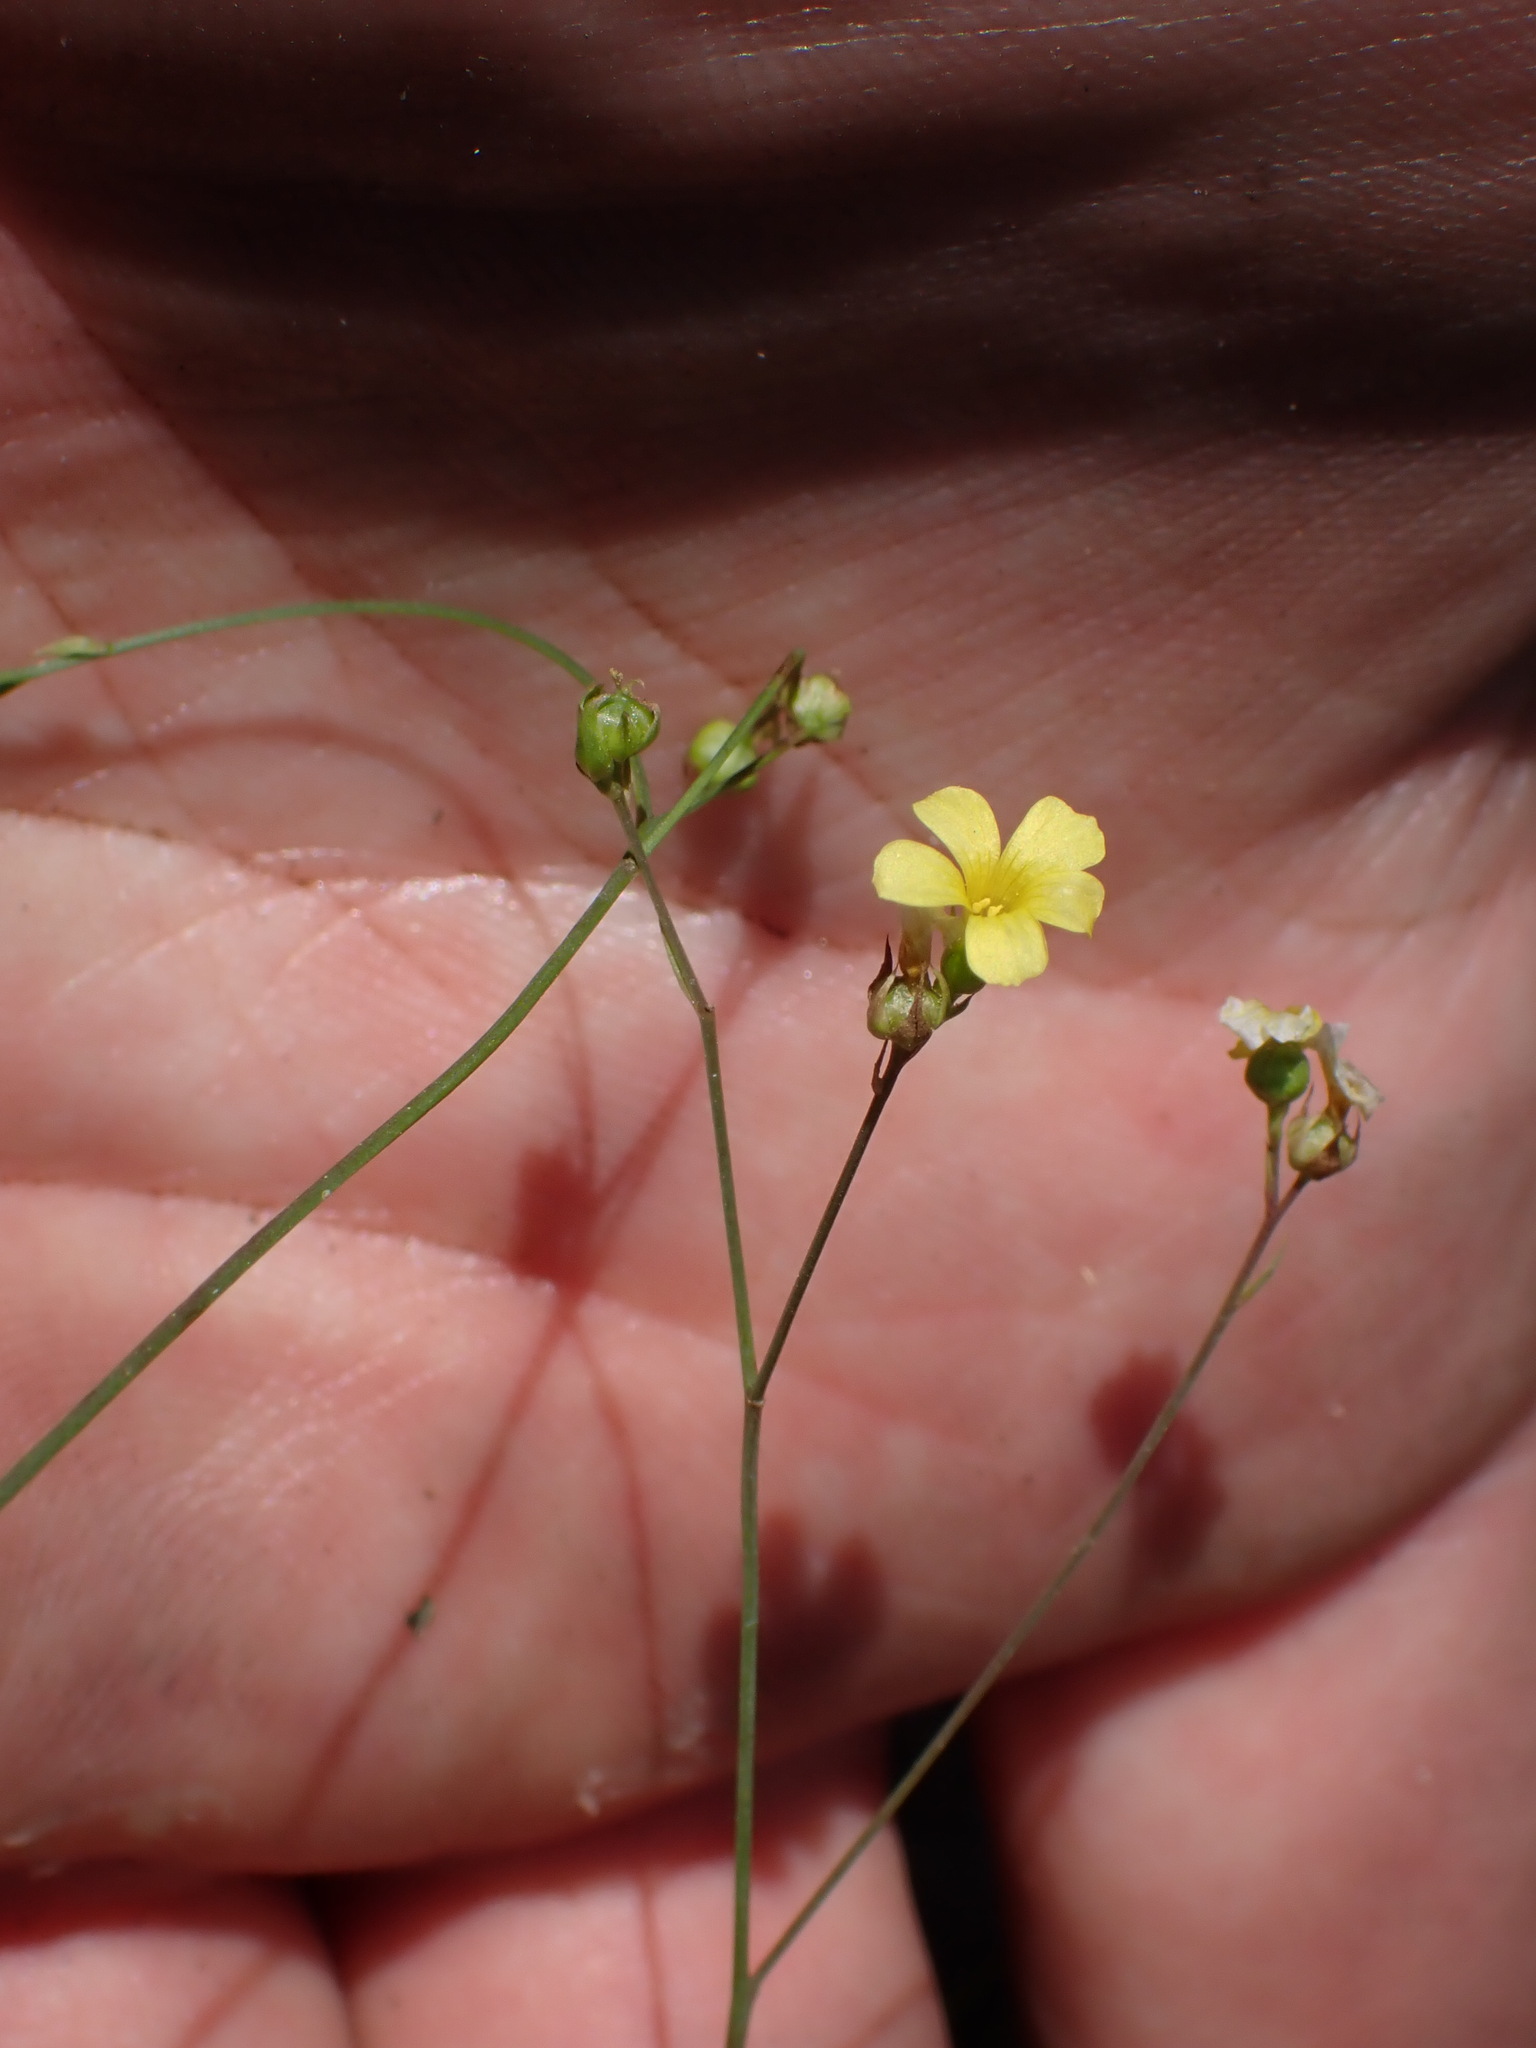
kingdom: Plantae
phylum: Tracheophyta
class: Magnoliopsida
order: Malpighiales
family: Linaceae
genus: Linum
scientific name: Linum trigynum
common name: French flax
